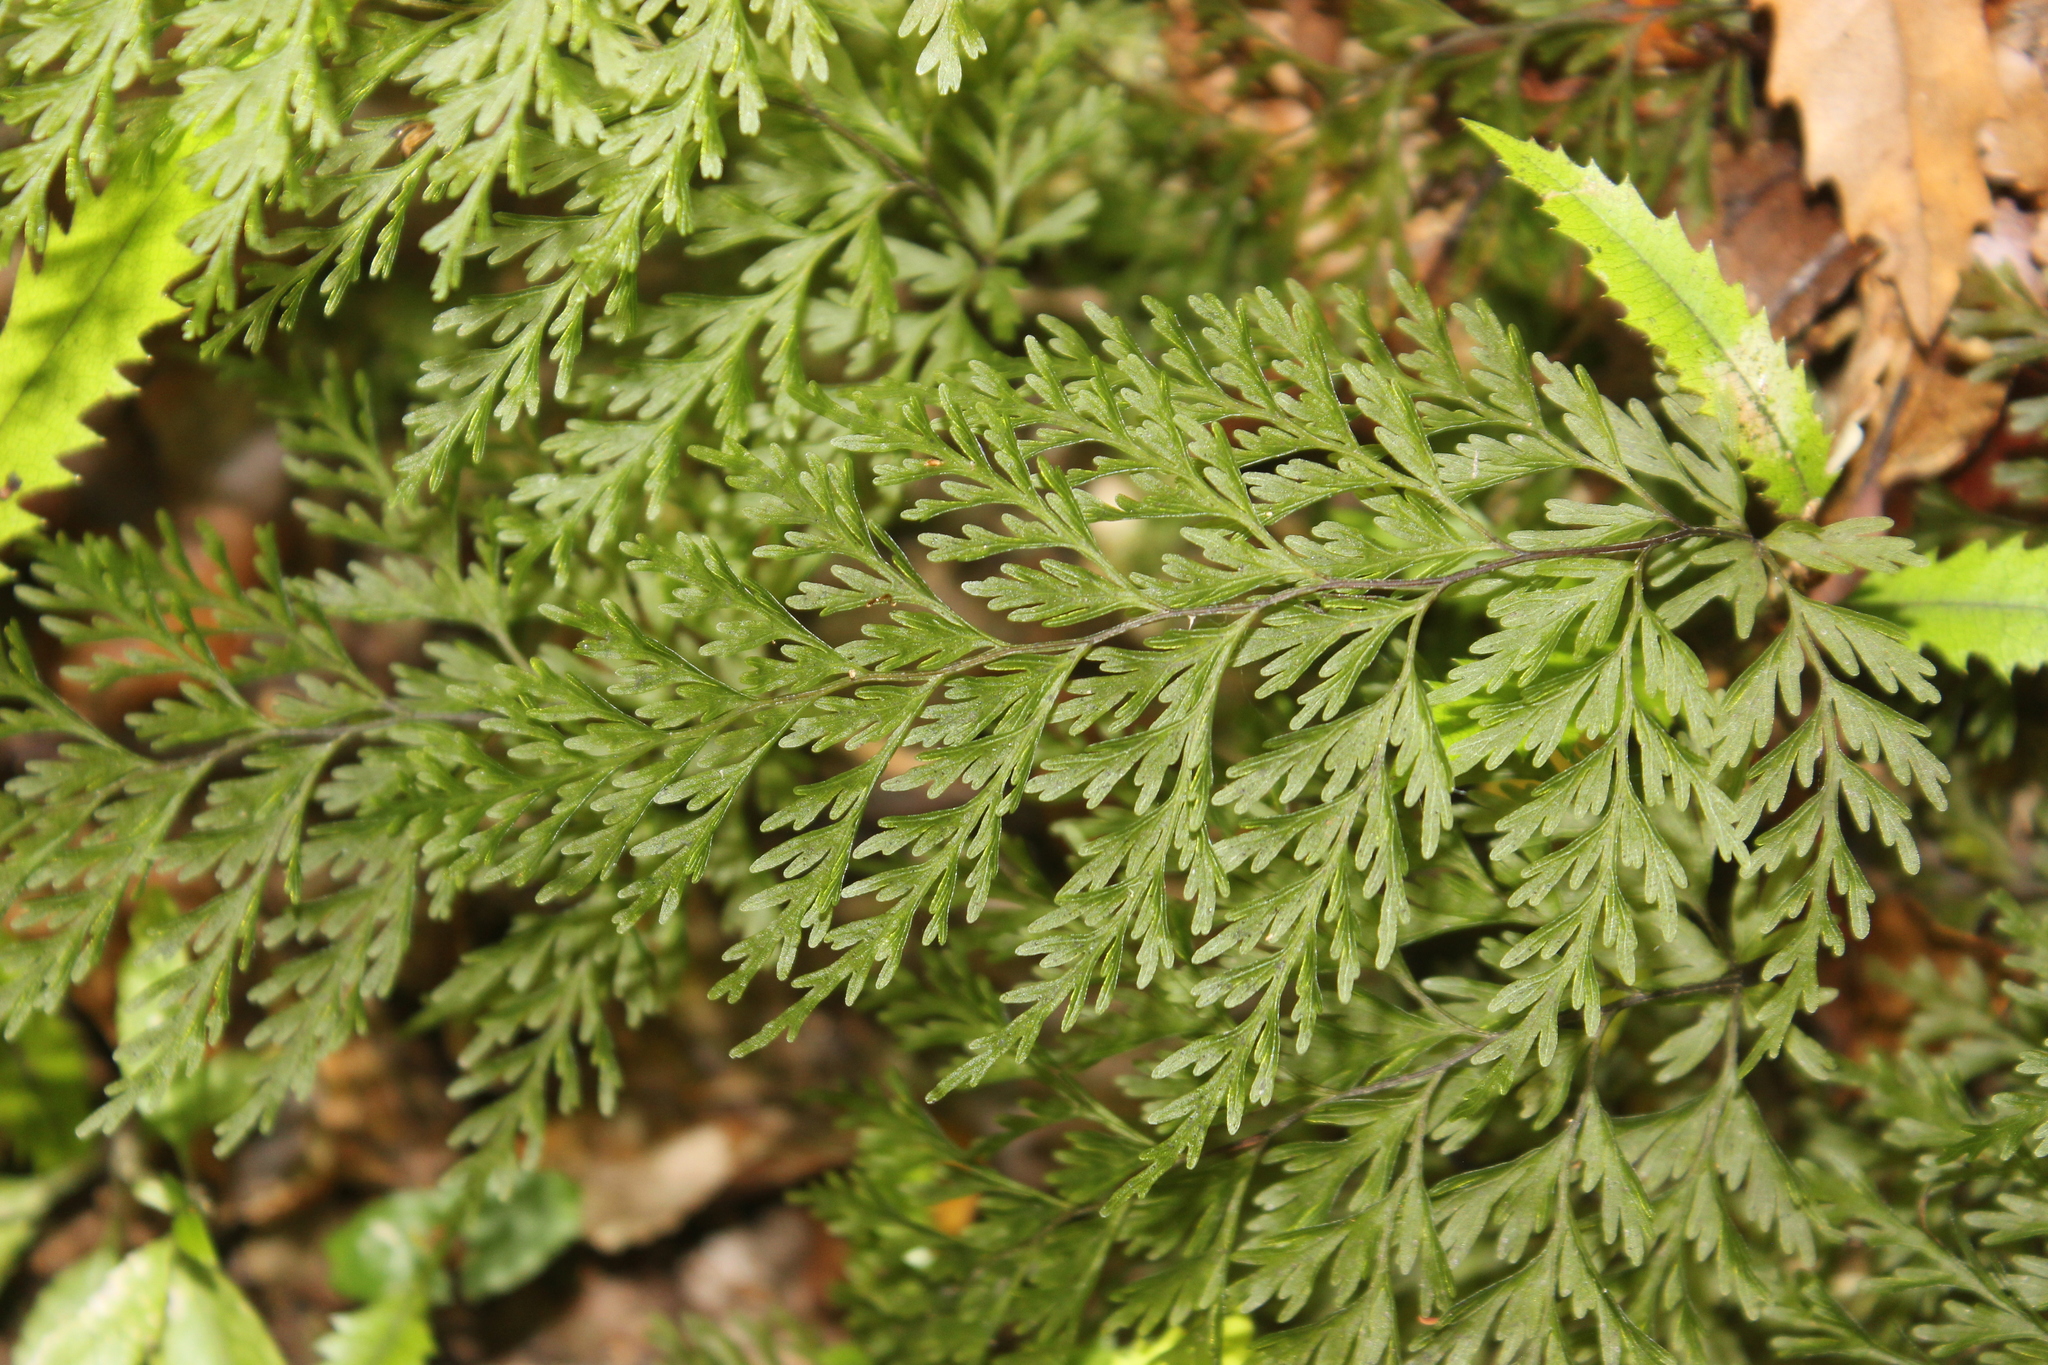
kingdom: Plantae
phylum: Tracheophyta
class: Polypodiopsida
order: Hymenophyllales
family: Hymenophyllaceae
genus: Hymenophyllum
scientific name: Hymenophyllum demissum
